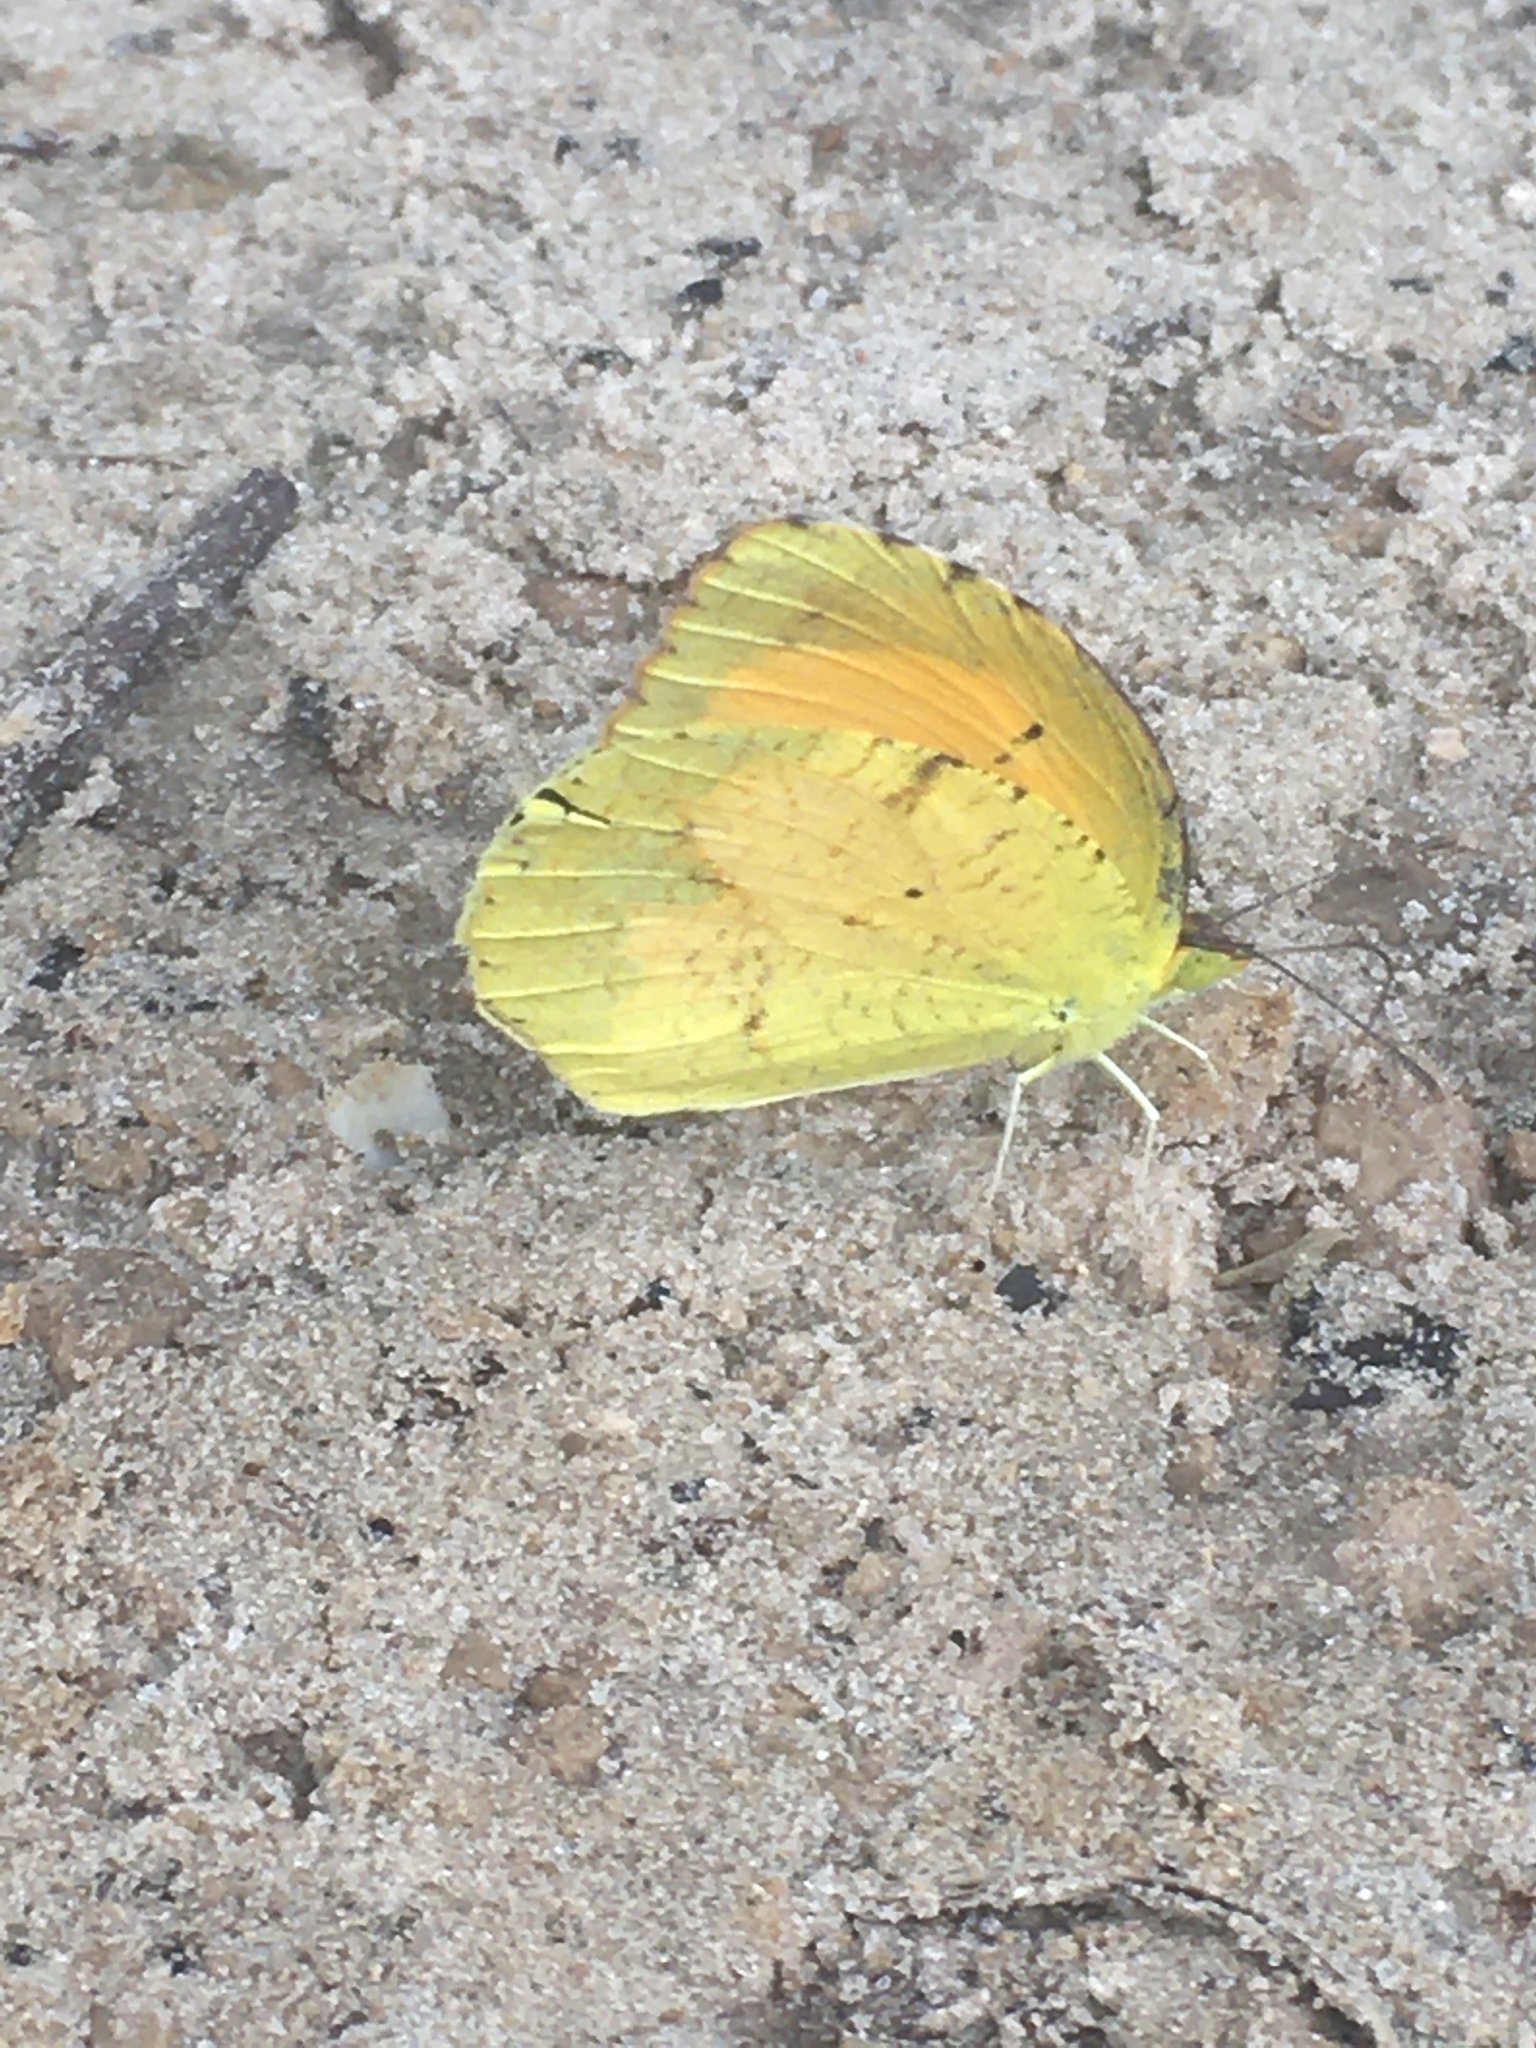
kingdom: Animalia
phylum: Arthropoda
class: Insecta
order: Lepidoptera
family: Pieridae
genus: Abaeis
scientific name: Abaeis nicippe
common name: Sleepy orange
